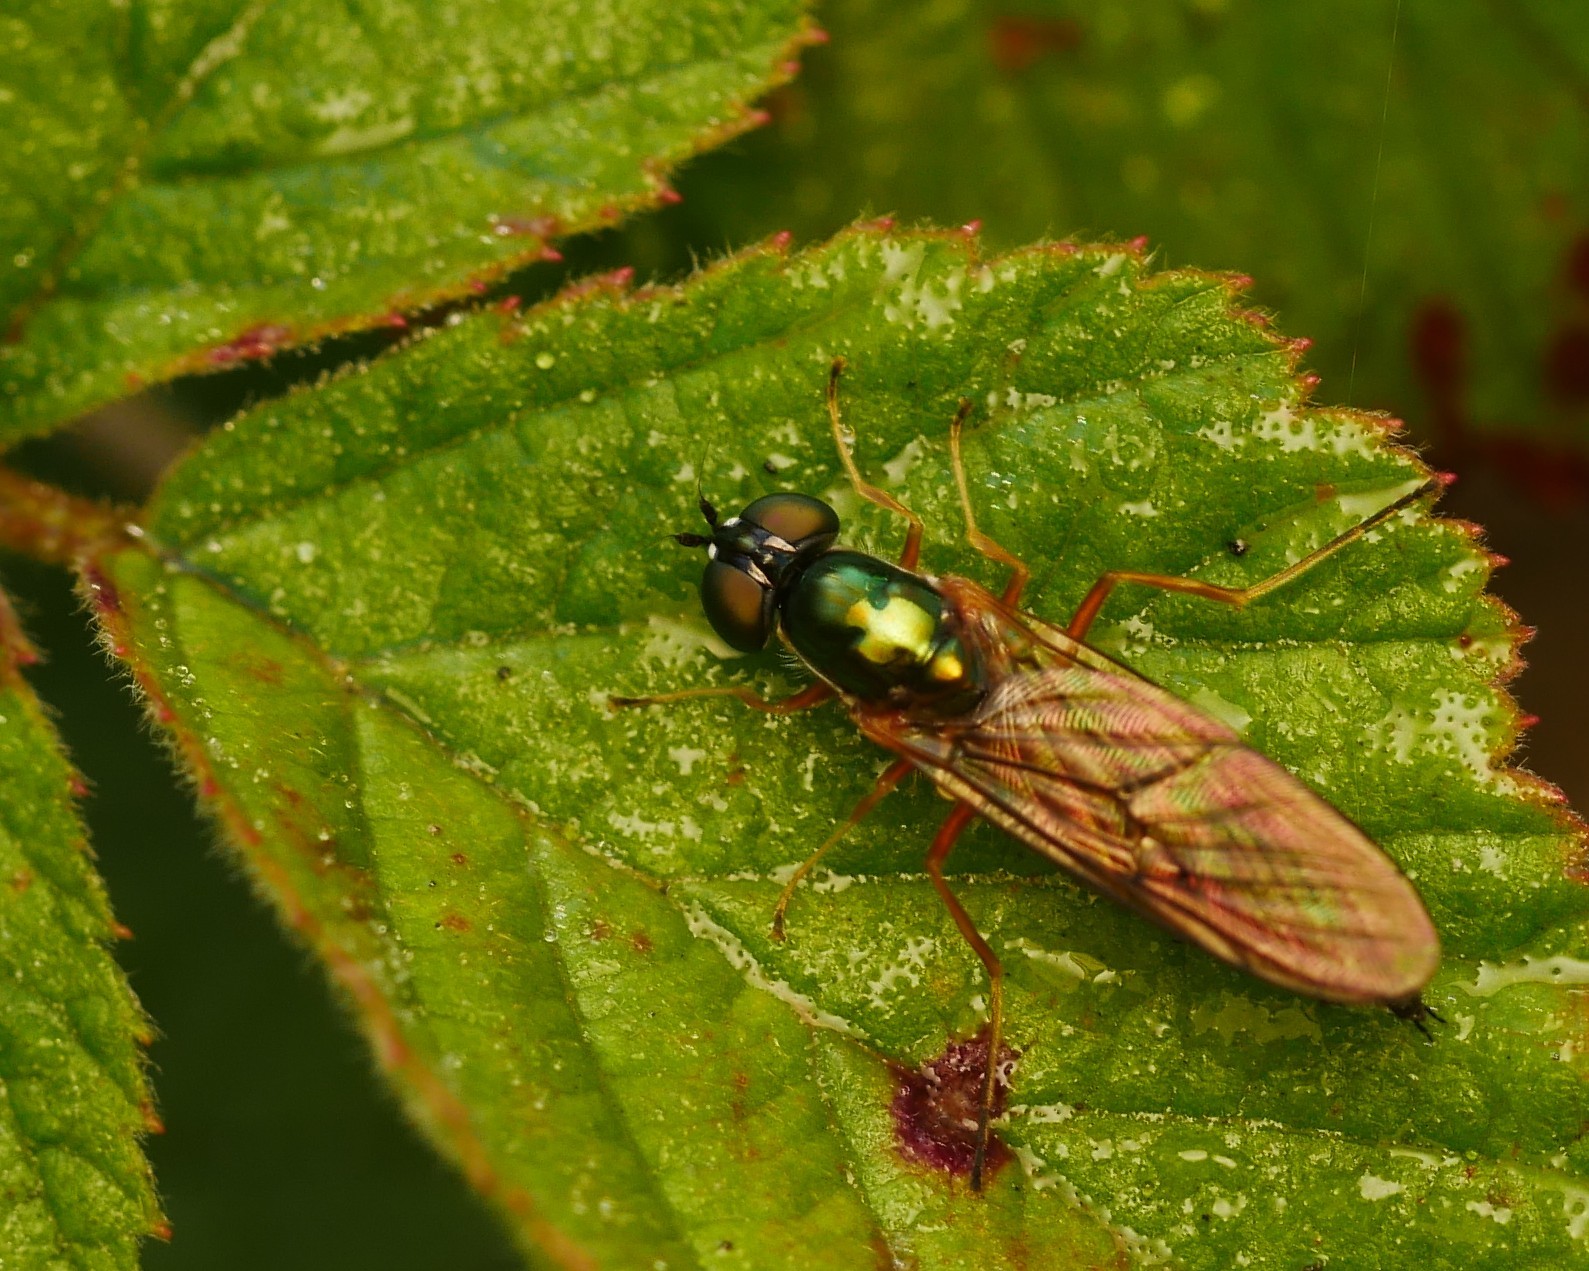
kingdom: Animalia
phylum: Arthropoda
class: Insecta
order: Diptera
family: Stratiomyidae
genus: Sargus
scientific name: Sargus bipunctatus
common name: Twin-spot centurion
